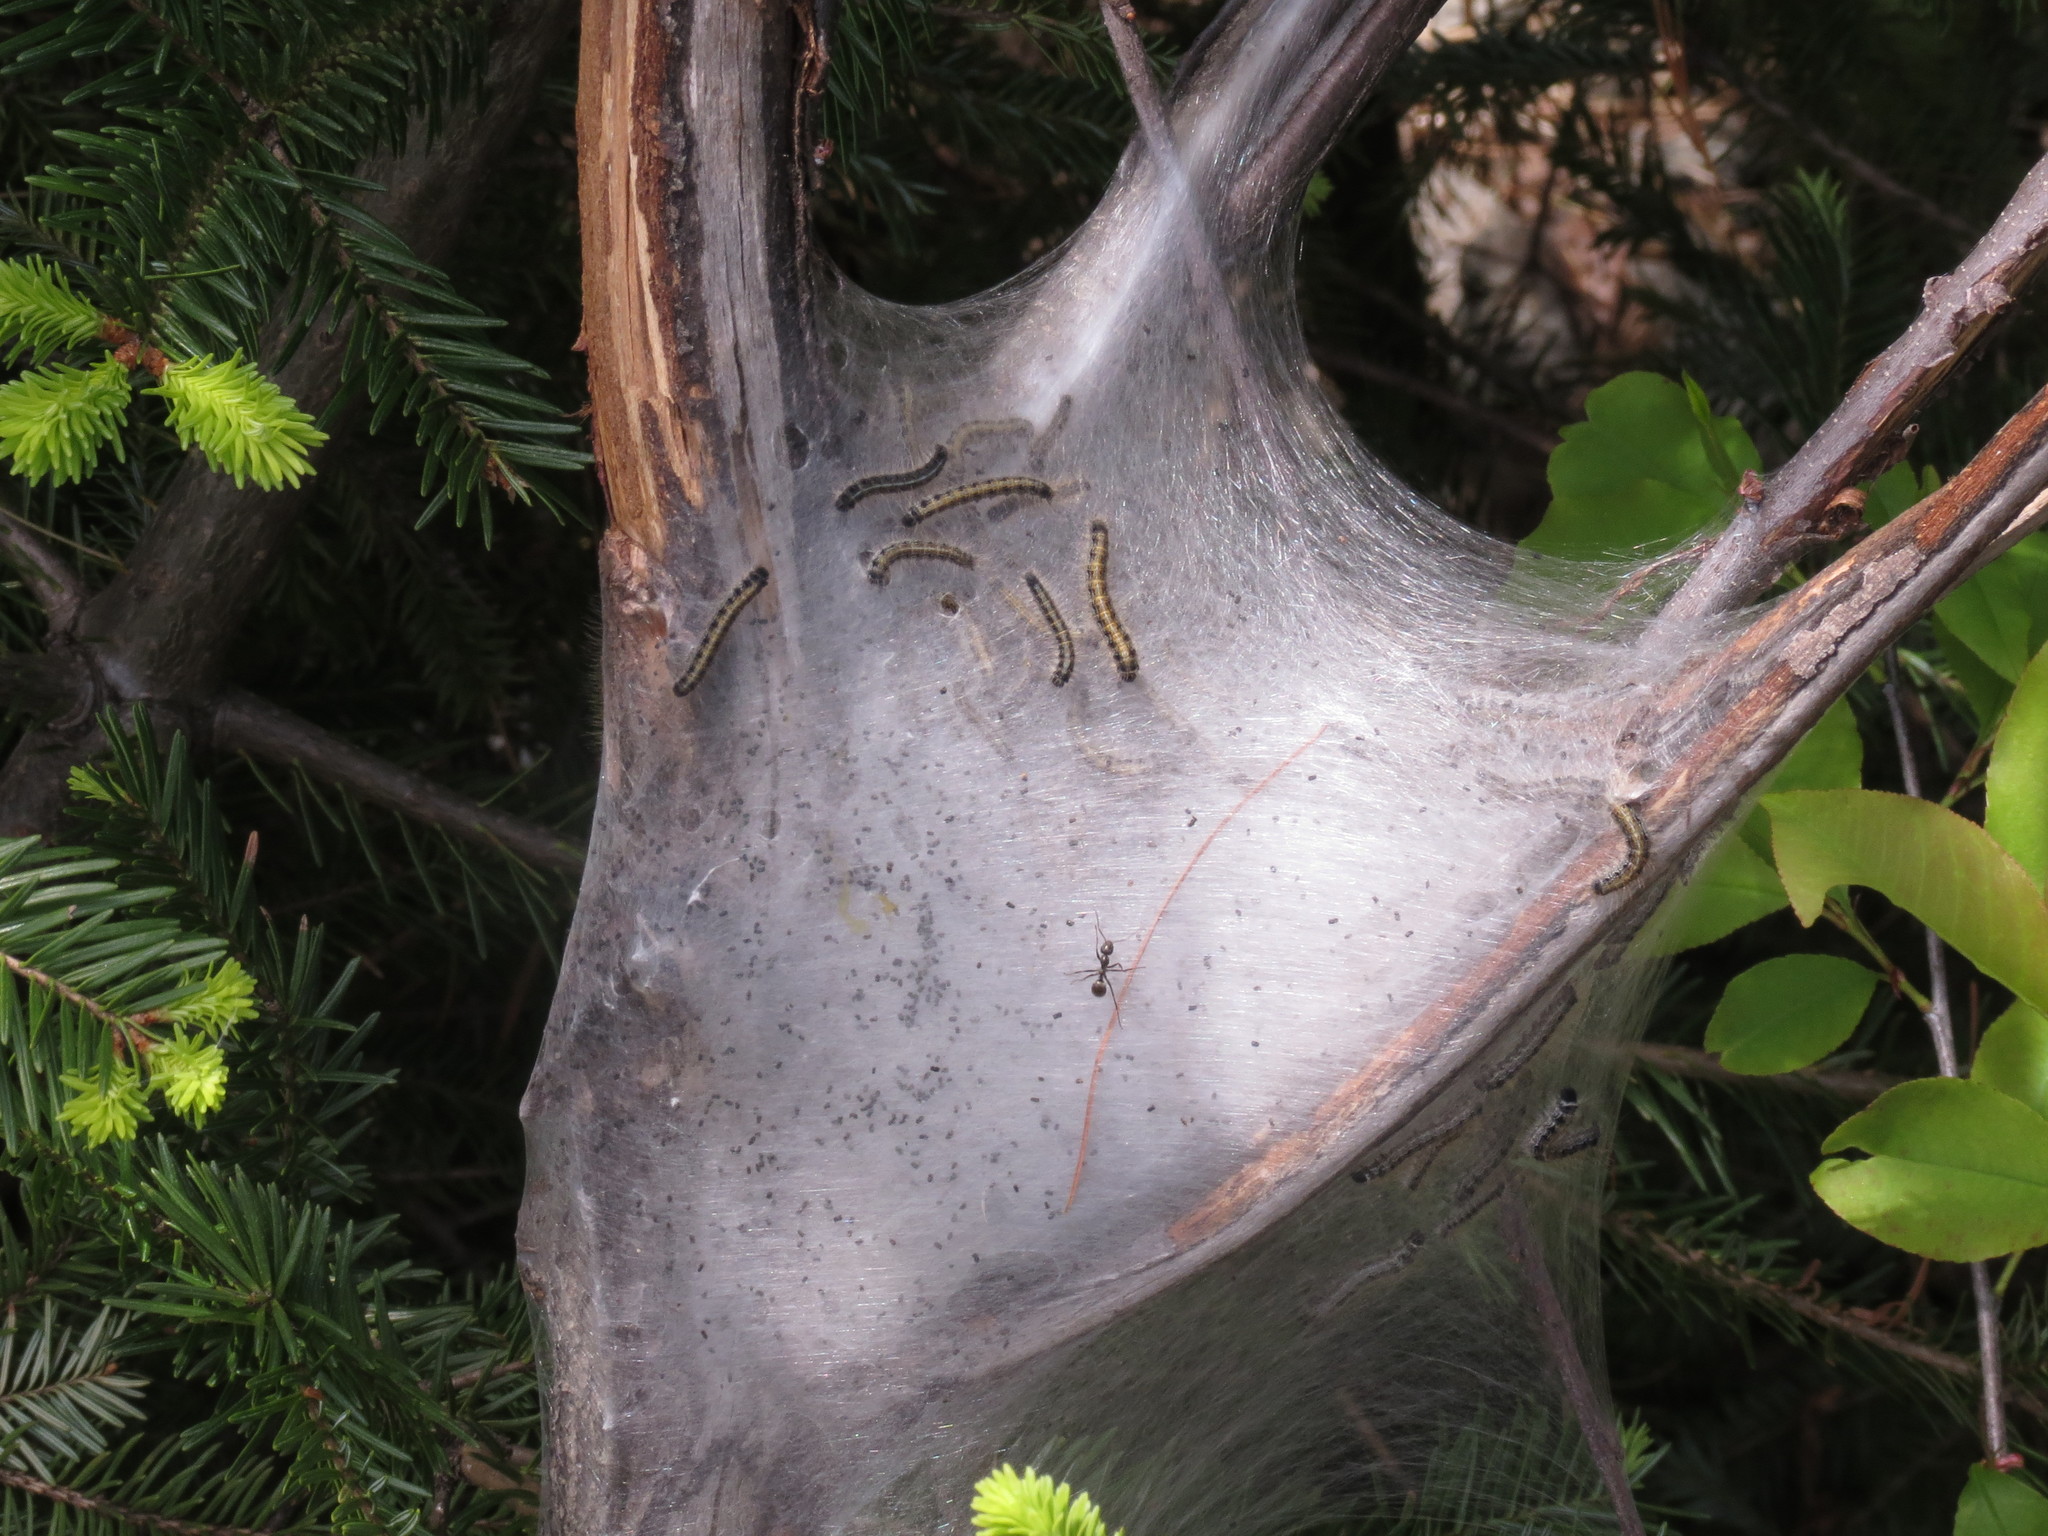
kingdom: Animalia
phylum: Arthropoda
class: Insecta
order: Lepidoptera
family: Lasiocampidae
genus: Malacosoma
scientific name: Malacosoma americana
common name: Eastern tent caterpillar moth
